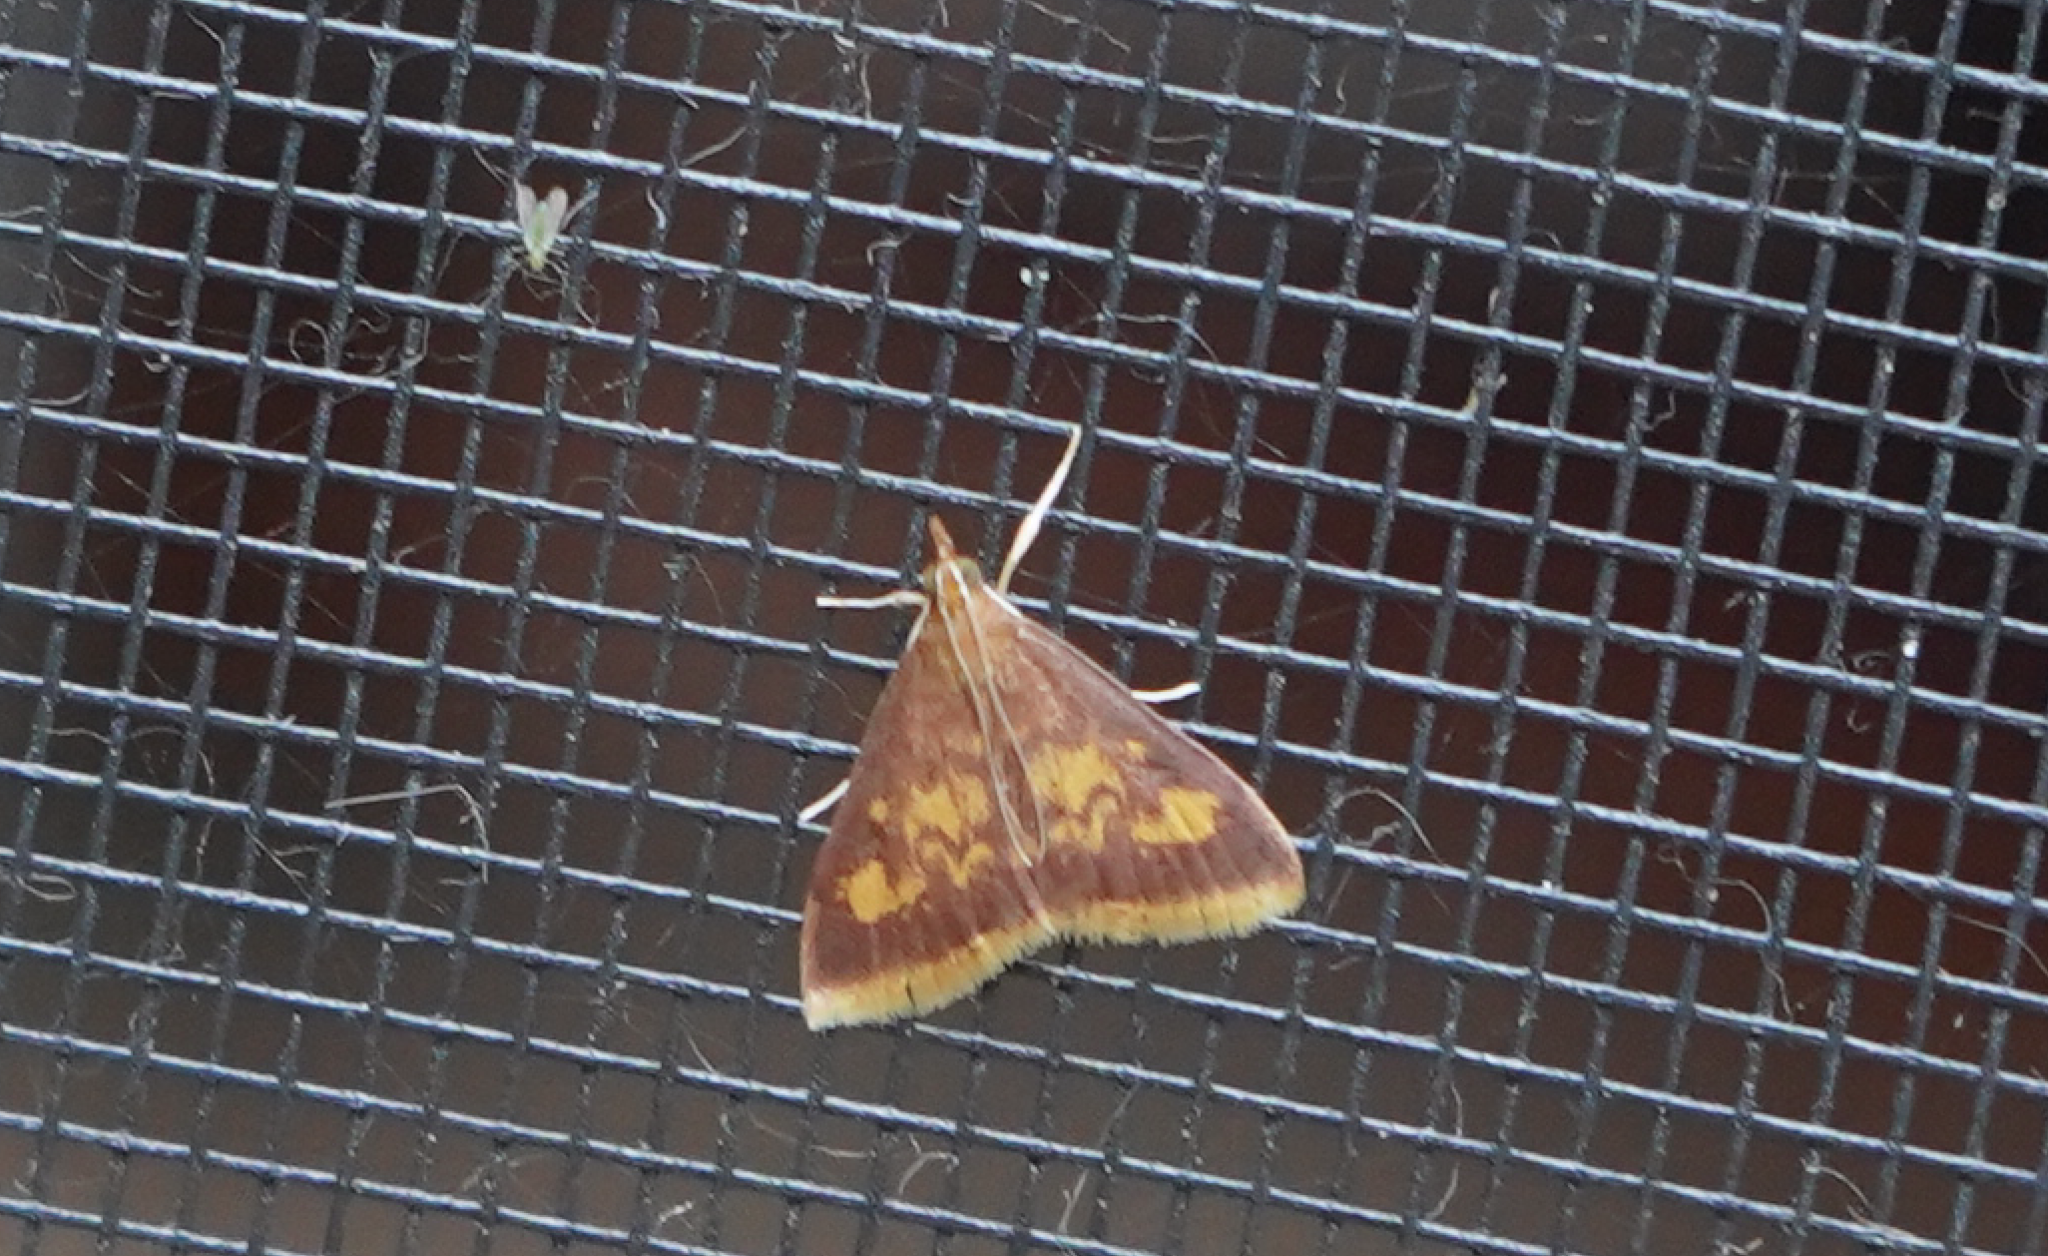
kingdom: Animalia
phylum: Arthropoda
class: Insecta
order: Lepidoptera
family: Crambidae
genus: Pyrausta
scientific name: Pyrausta acrionalis
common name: Mint-loving pyrausta moth
